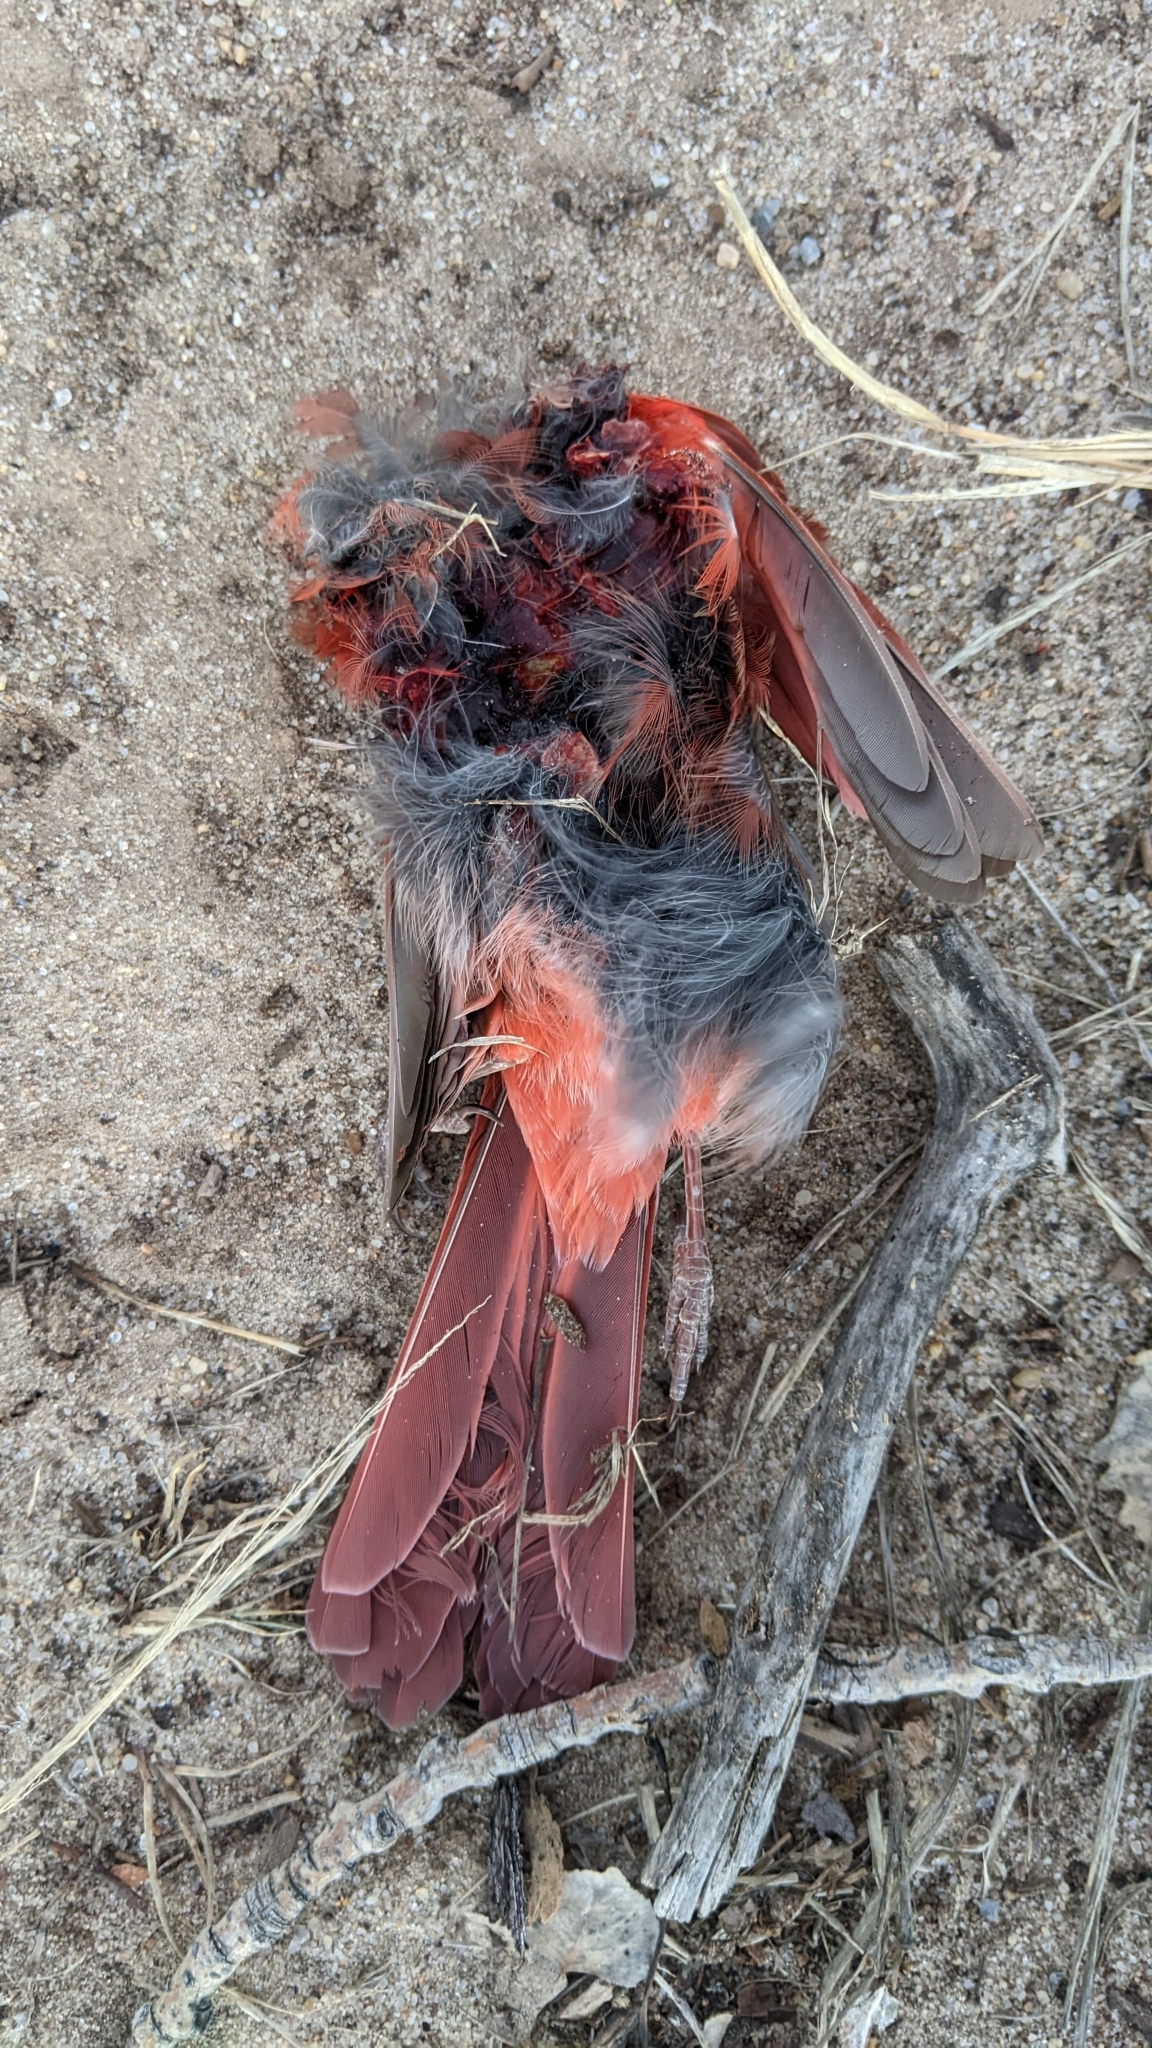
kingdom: Animalia
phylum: Chordata
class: Aves
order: Passeriformes
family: Cardinalidae
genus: Cardinalis
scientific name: Cardinalis cardinalis
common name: Northern cardinal
